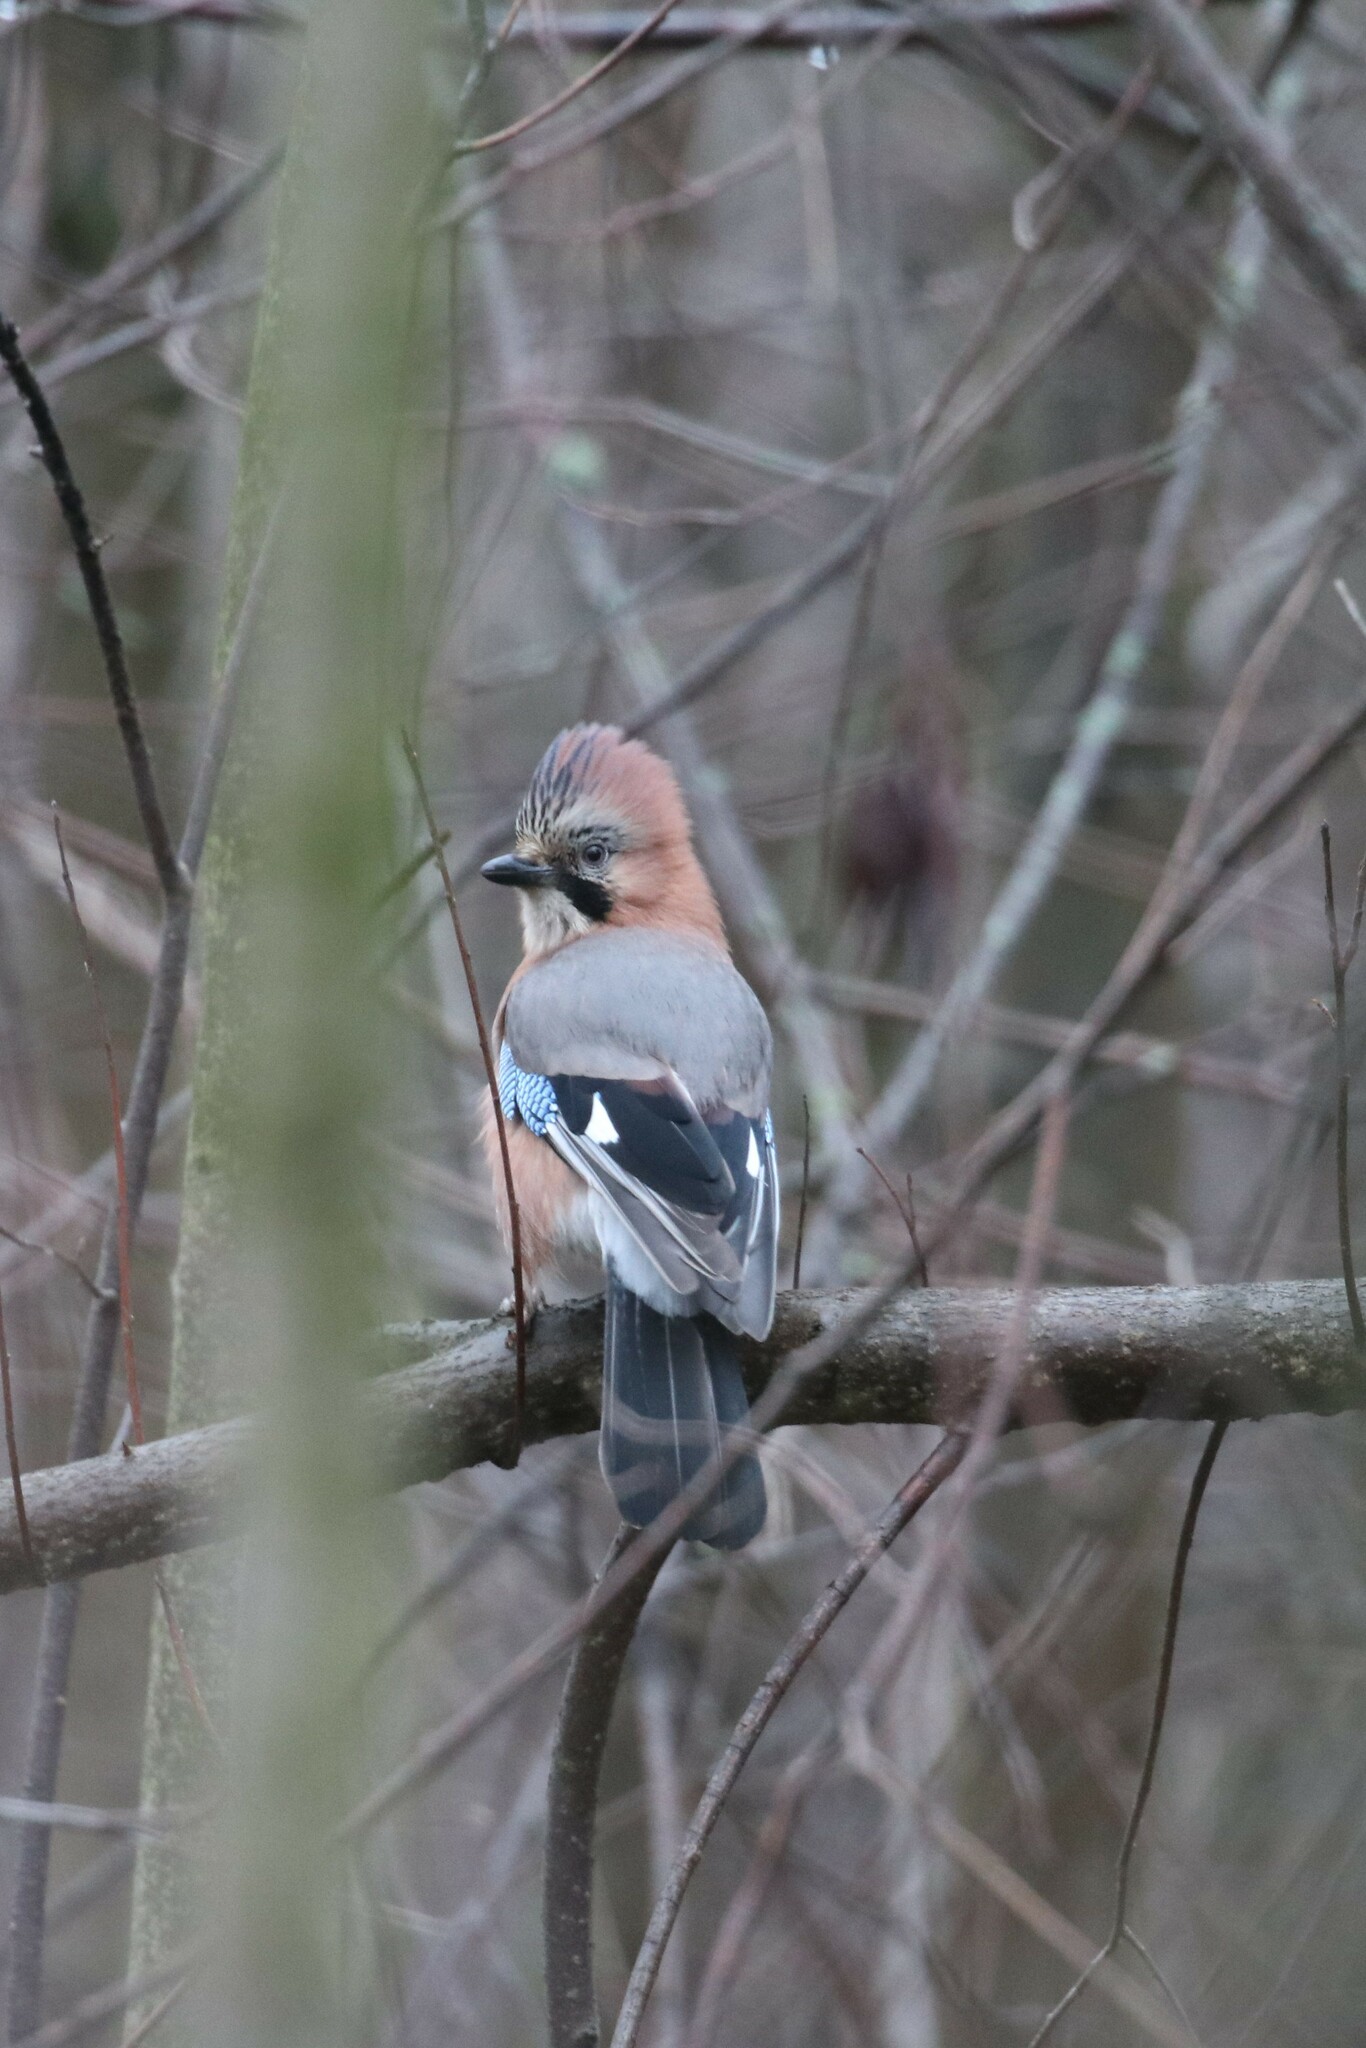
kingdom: Animalia
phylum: Chordata
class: Aves
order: Passeriformes
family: Corvidae
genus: Garrulus
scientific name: Garrulus glandarius
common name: Eurasian jay
